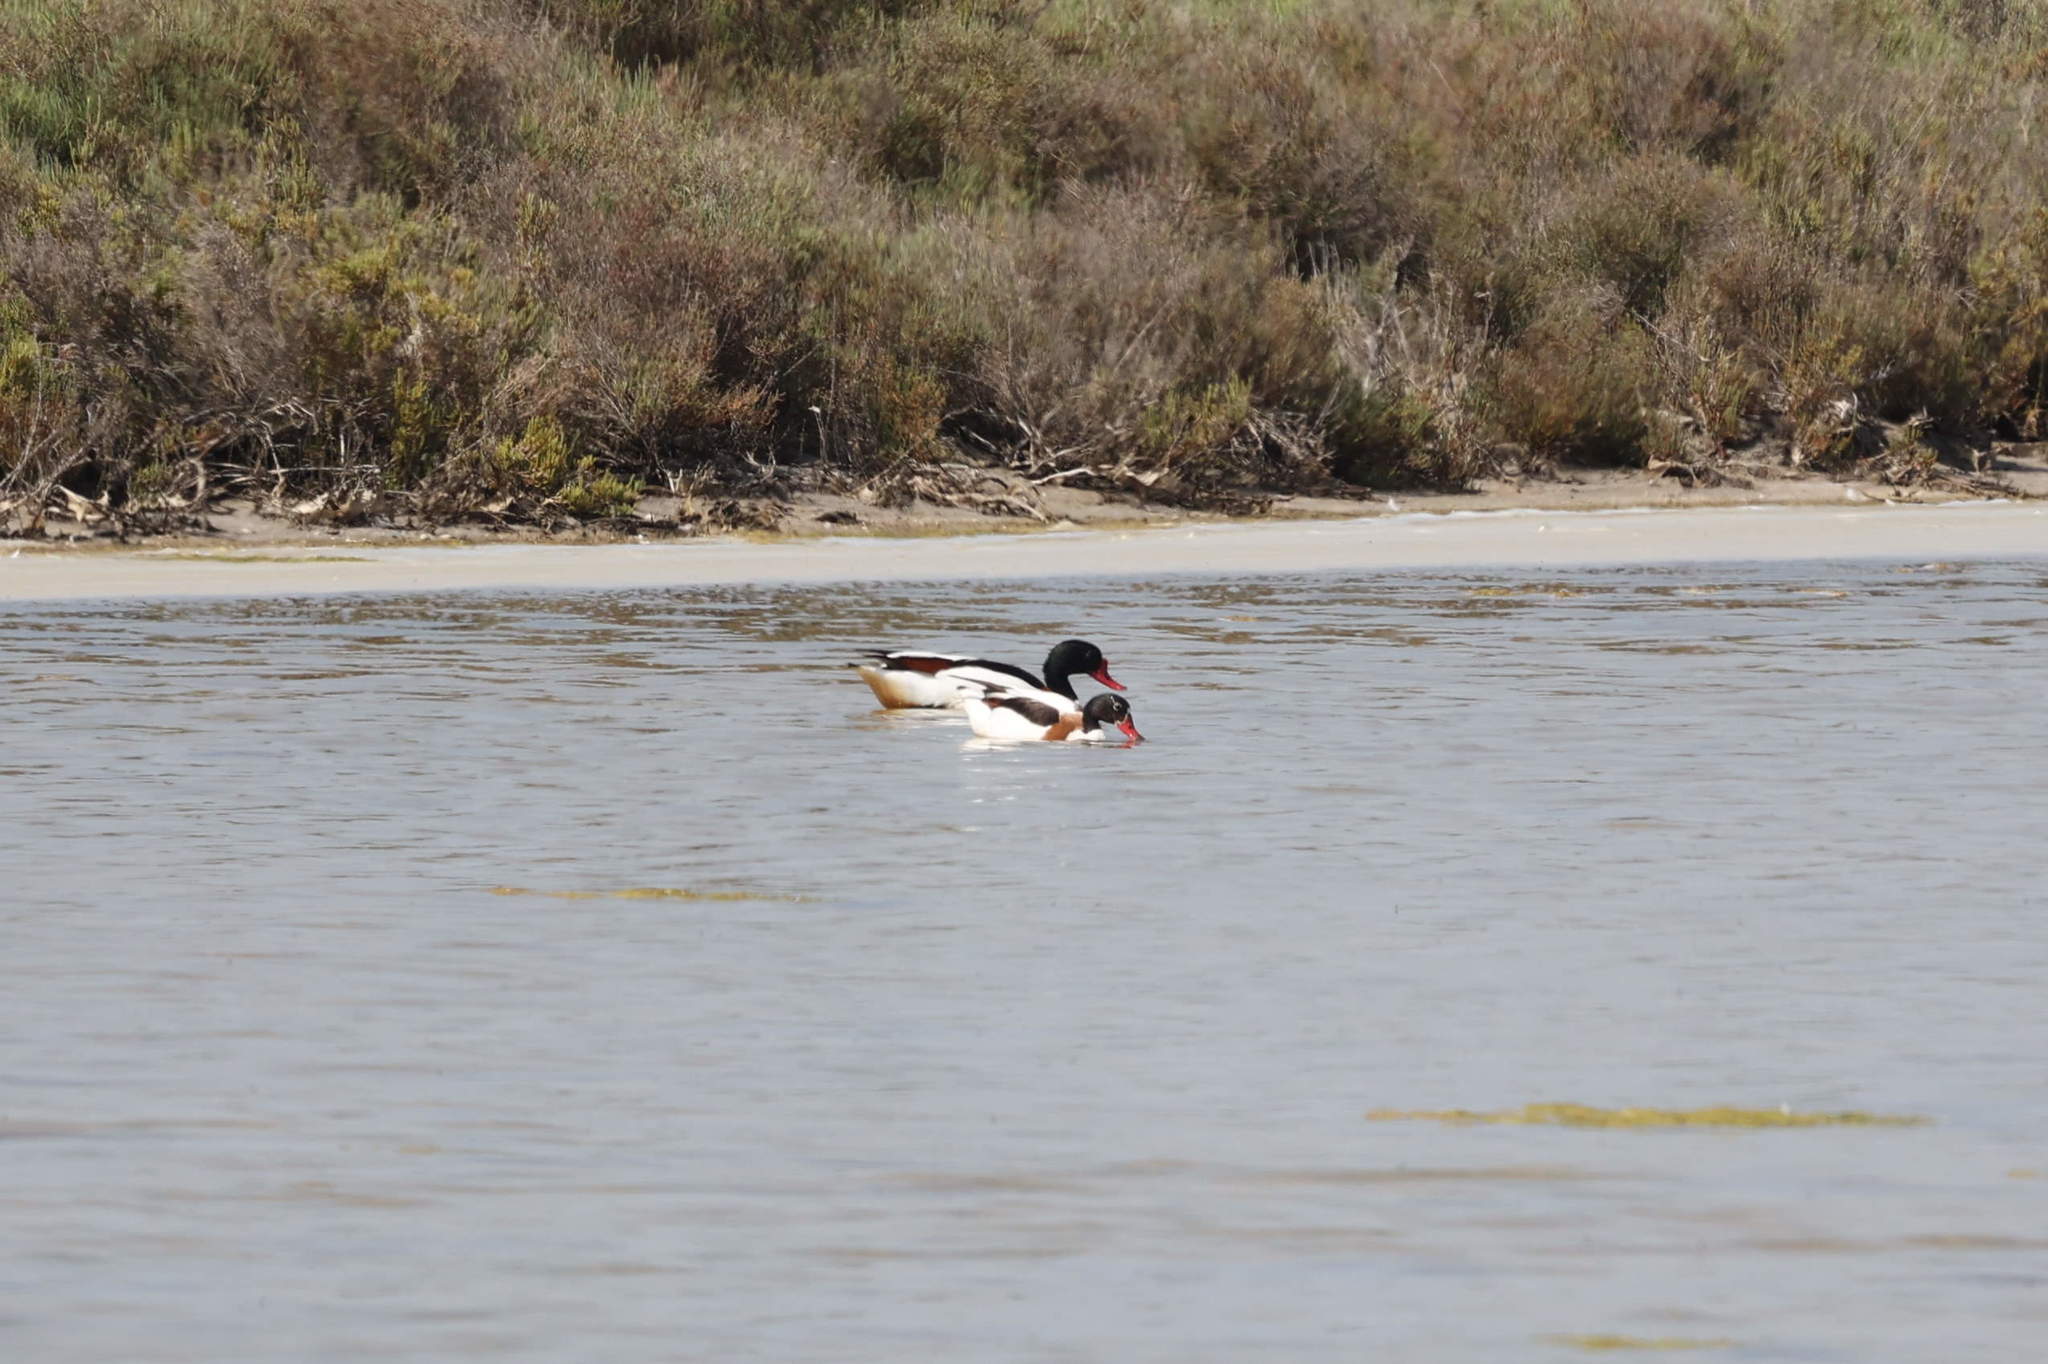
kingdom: Animalia
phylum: Chordata
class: Aves
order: Anseriformes
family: Anatidae
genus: Tadorna
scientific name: Tadorna tadorna
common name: Common shelduck
